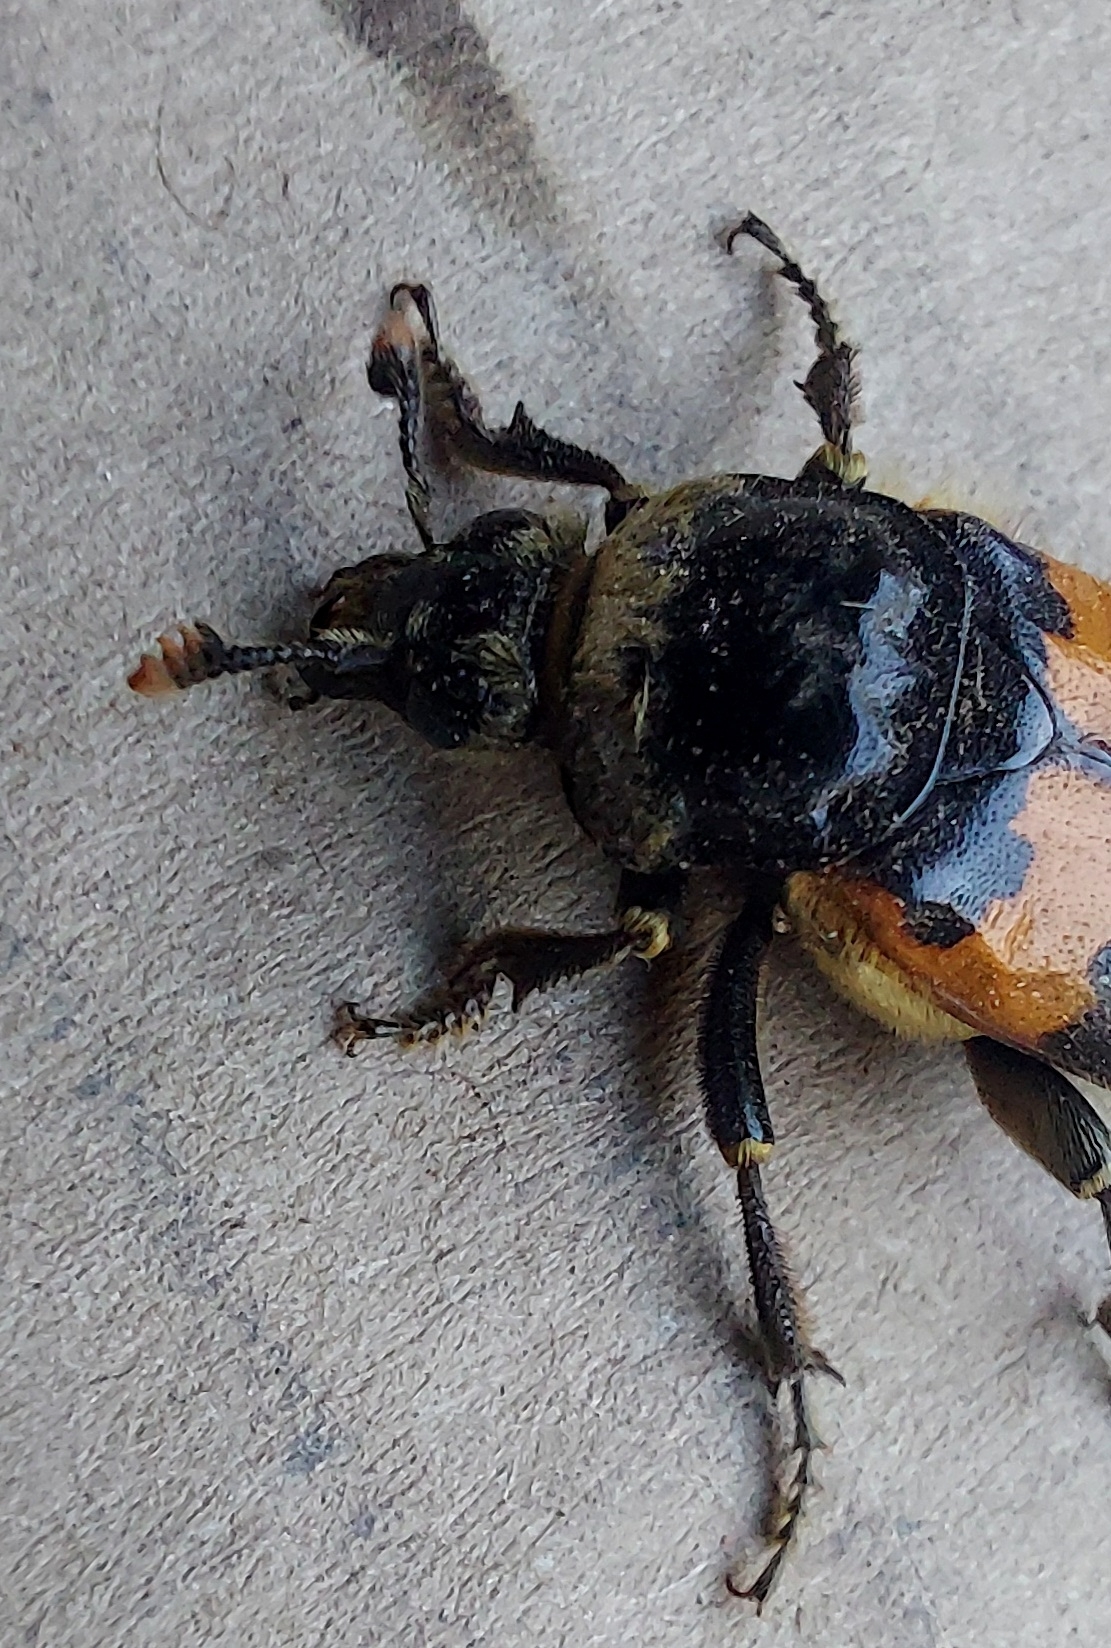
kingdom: Animalia
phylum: Arthropoda
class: Insecta
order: Coleoptera
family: Staphylinidae
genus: Nicrophorus
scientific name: Nicrophorus vespillo
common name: Common burying beetle
